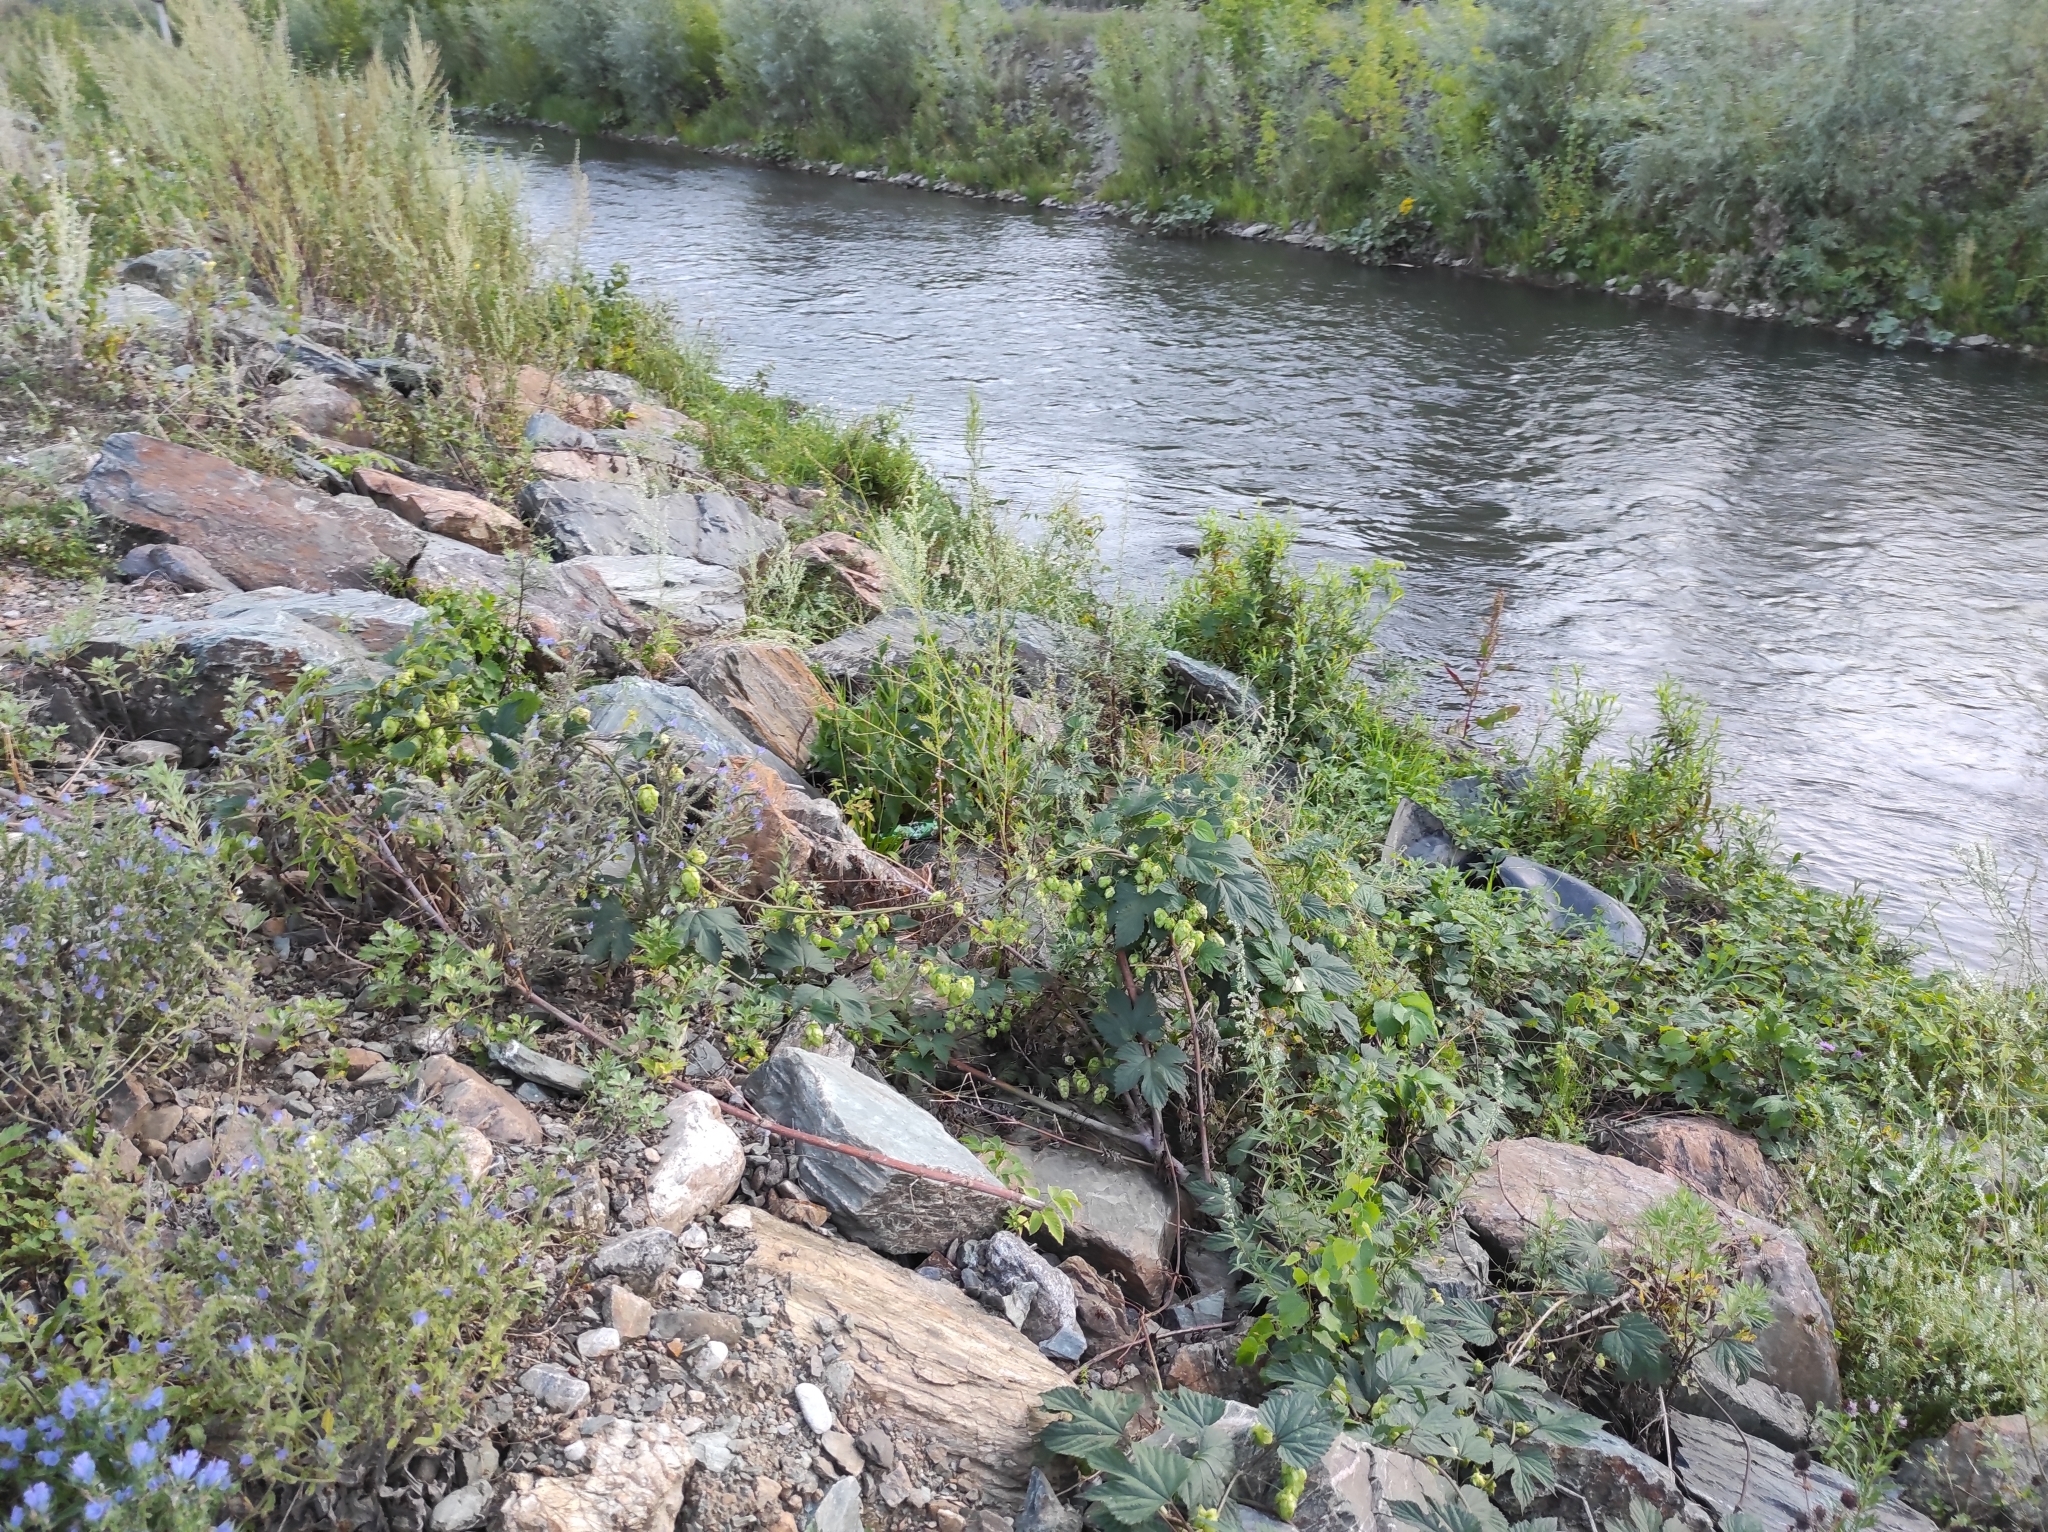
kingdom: Plantae
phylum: Tracheophyta
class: Magnoliopsida
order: Rosales
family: Cannabaceae
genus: Humulus
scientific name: Humulus lupulus
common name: Hop
